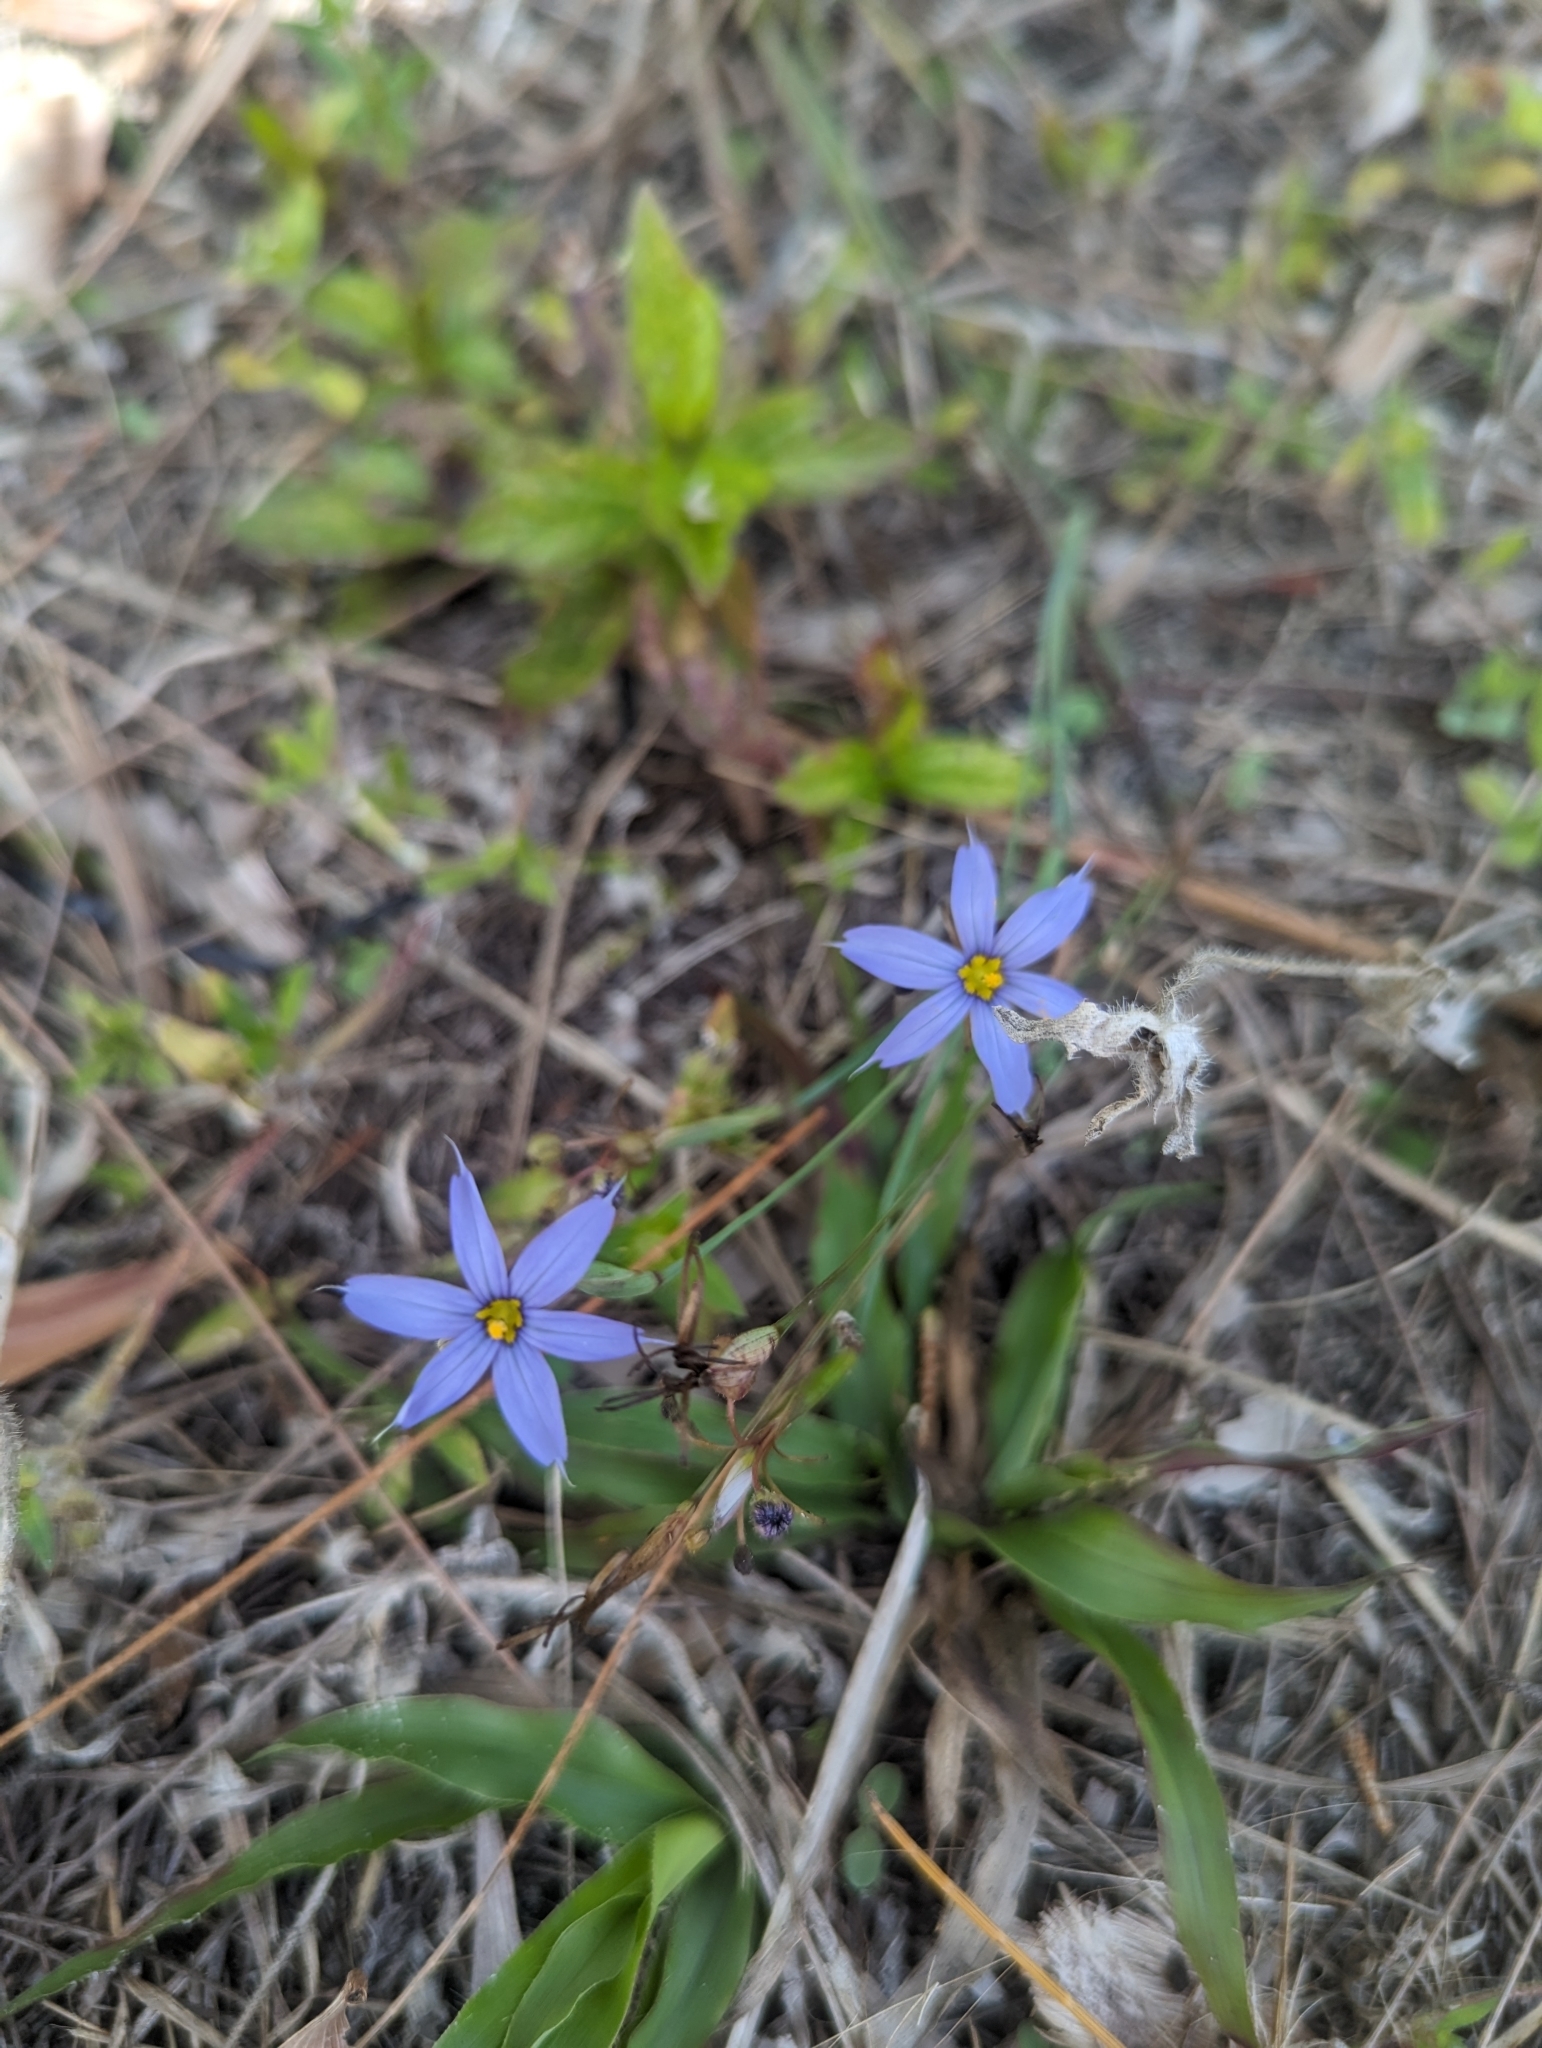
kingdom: Plantae
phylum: Tracheophyta
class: Liliopsida
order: Asparagales
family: Iridaceae
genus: Sisyrinchium
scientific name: Sisyrinchium angustifolium
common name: Narrow-leaf blue-eyed-grass
